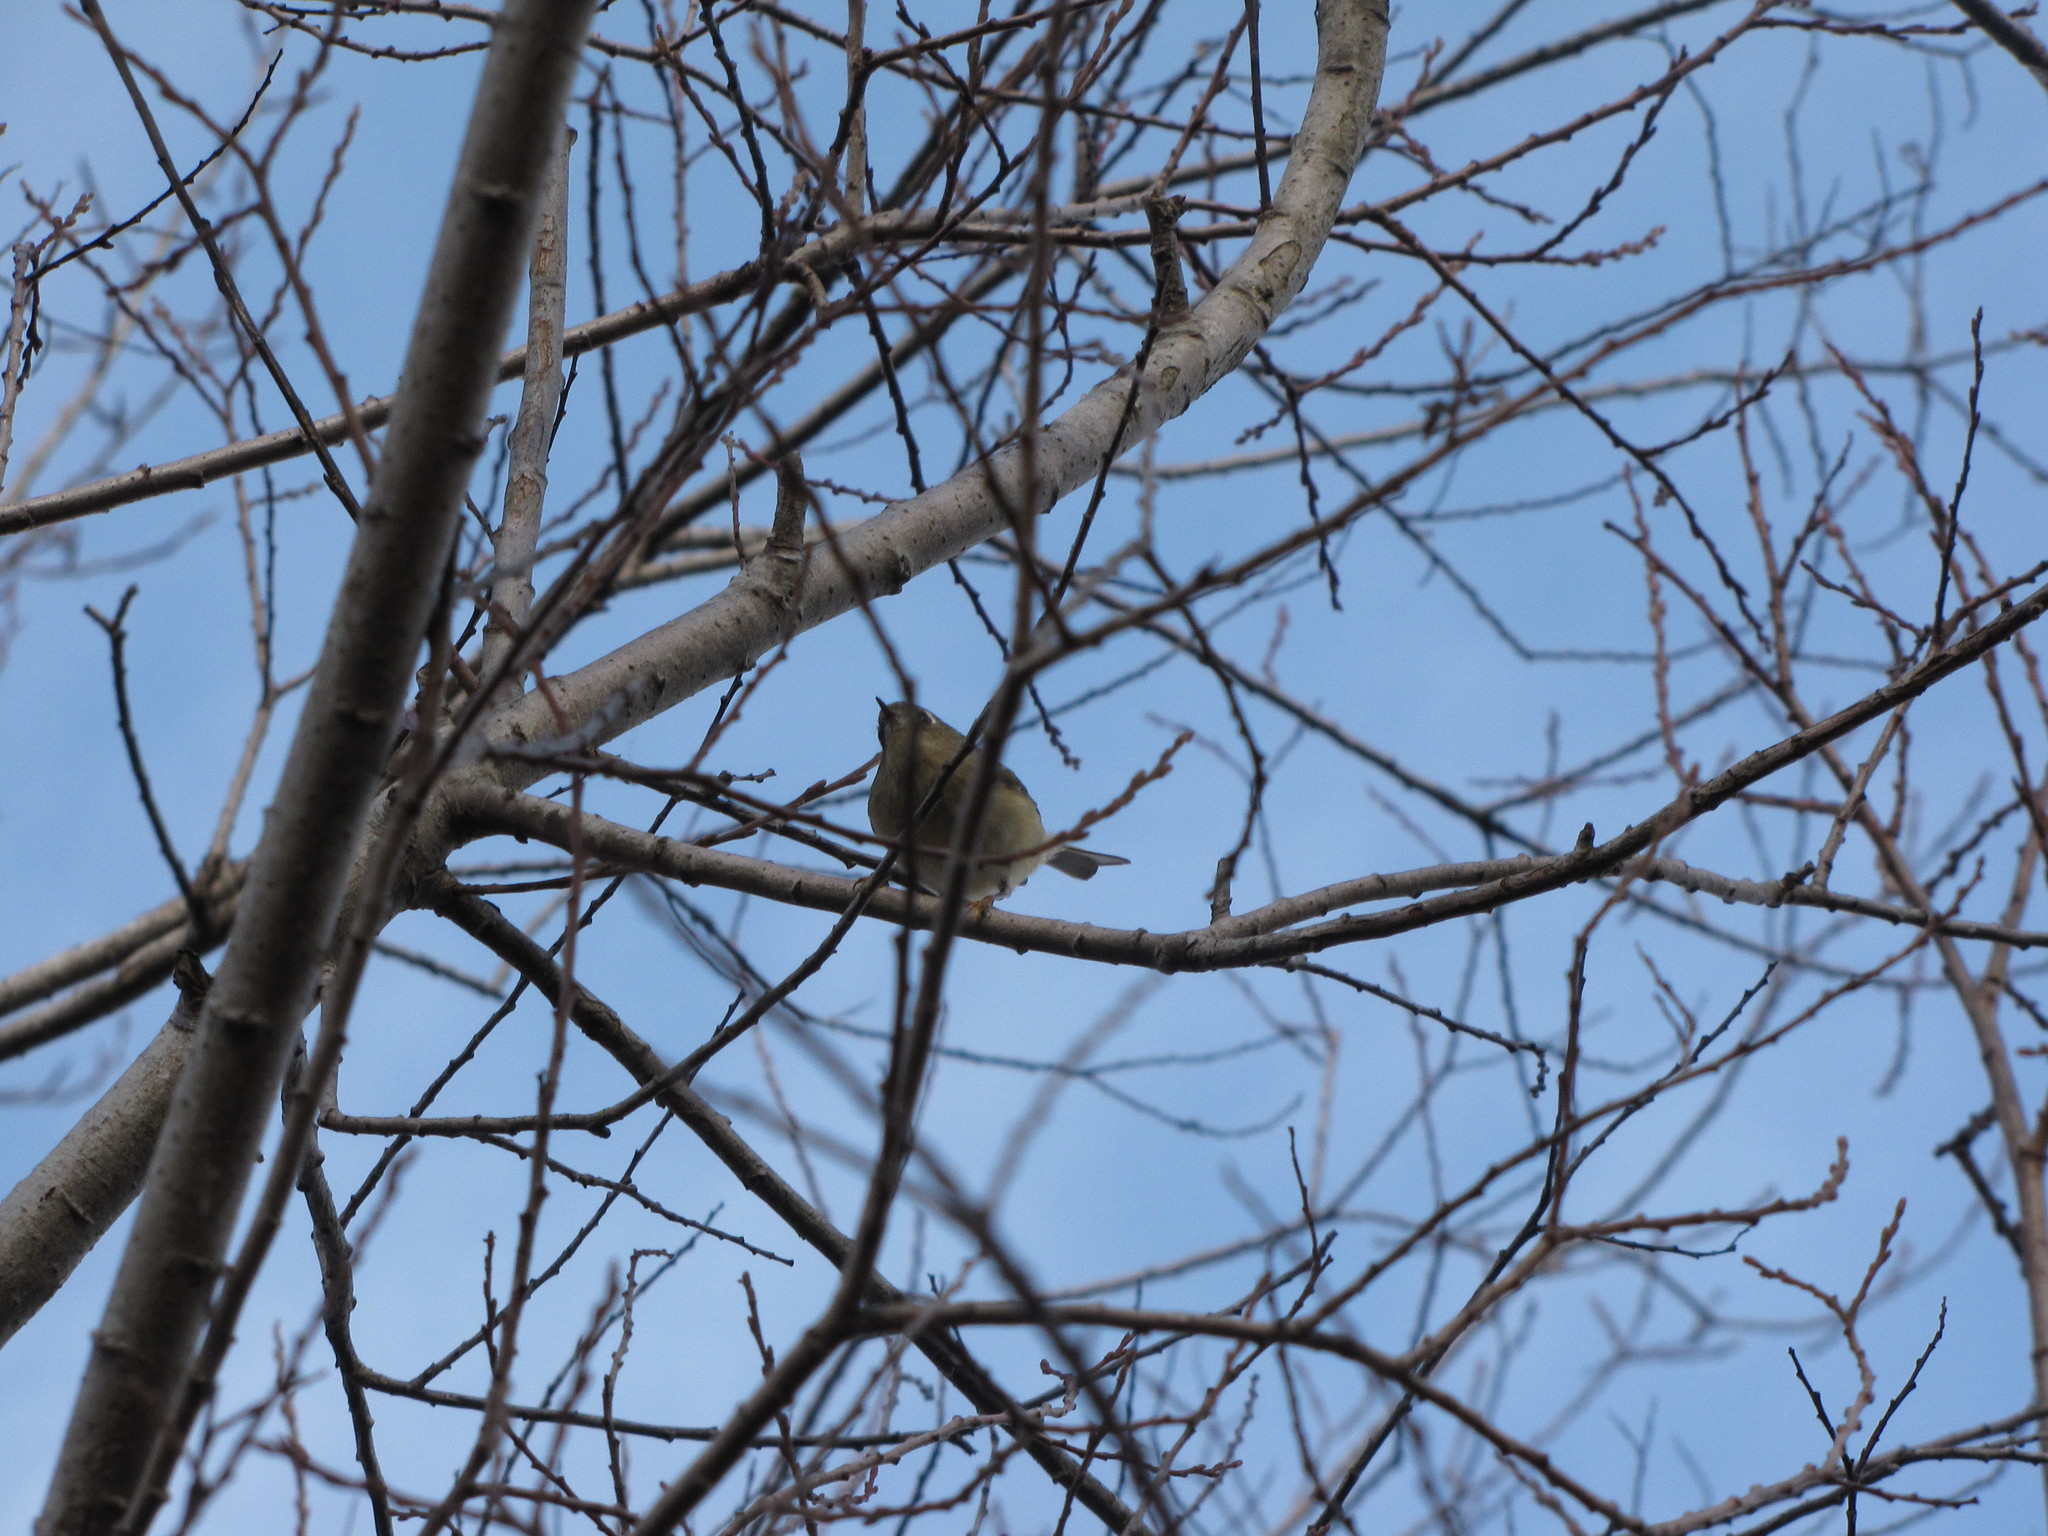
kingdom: Animalia
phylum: Chordata
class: Aves
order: Passeriformes
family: Regulidae
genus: Regulus
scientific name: Regulus calendula
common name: Ruby-crowned kinglet
